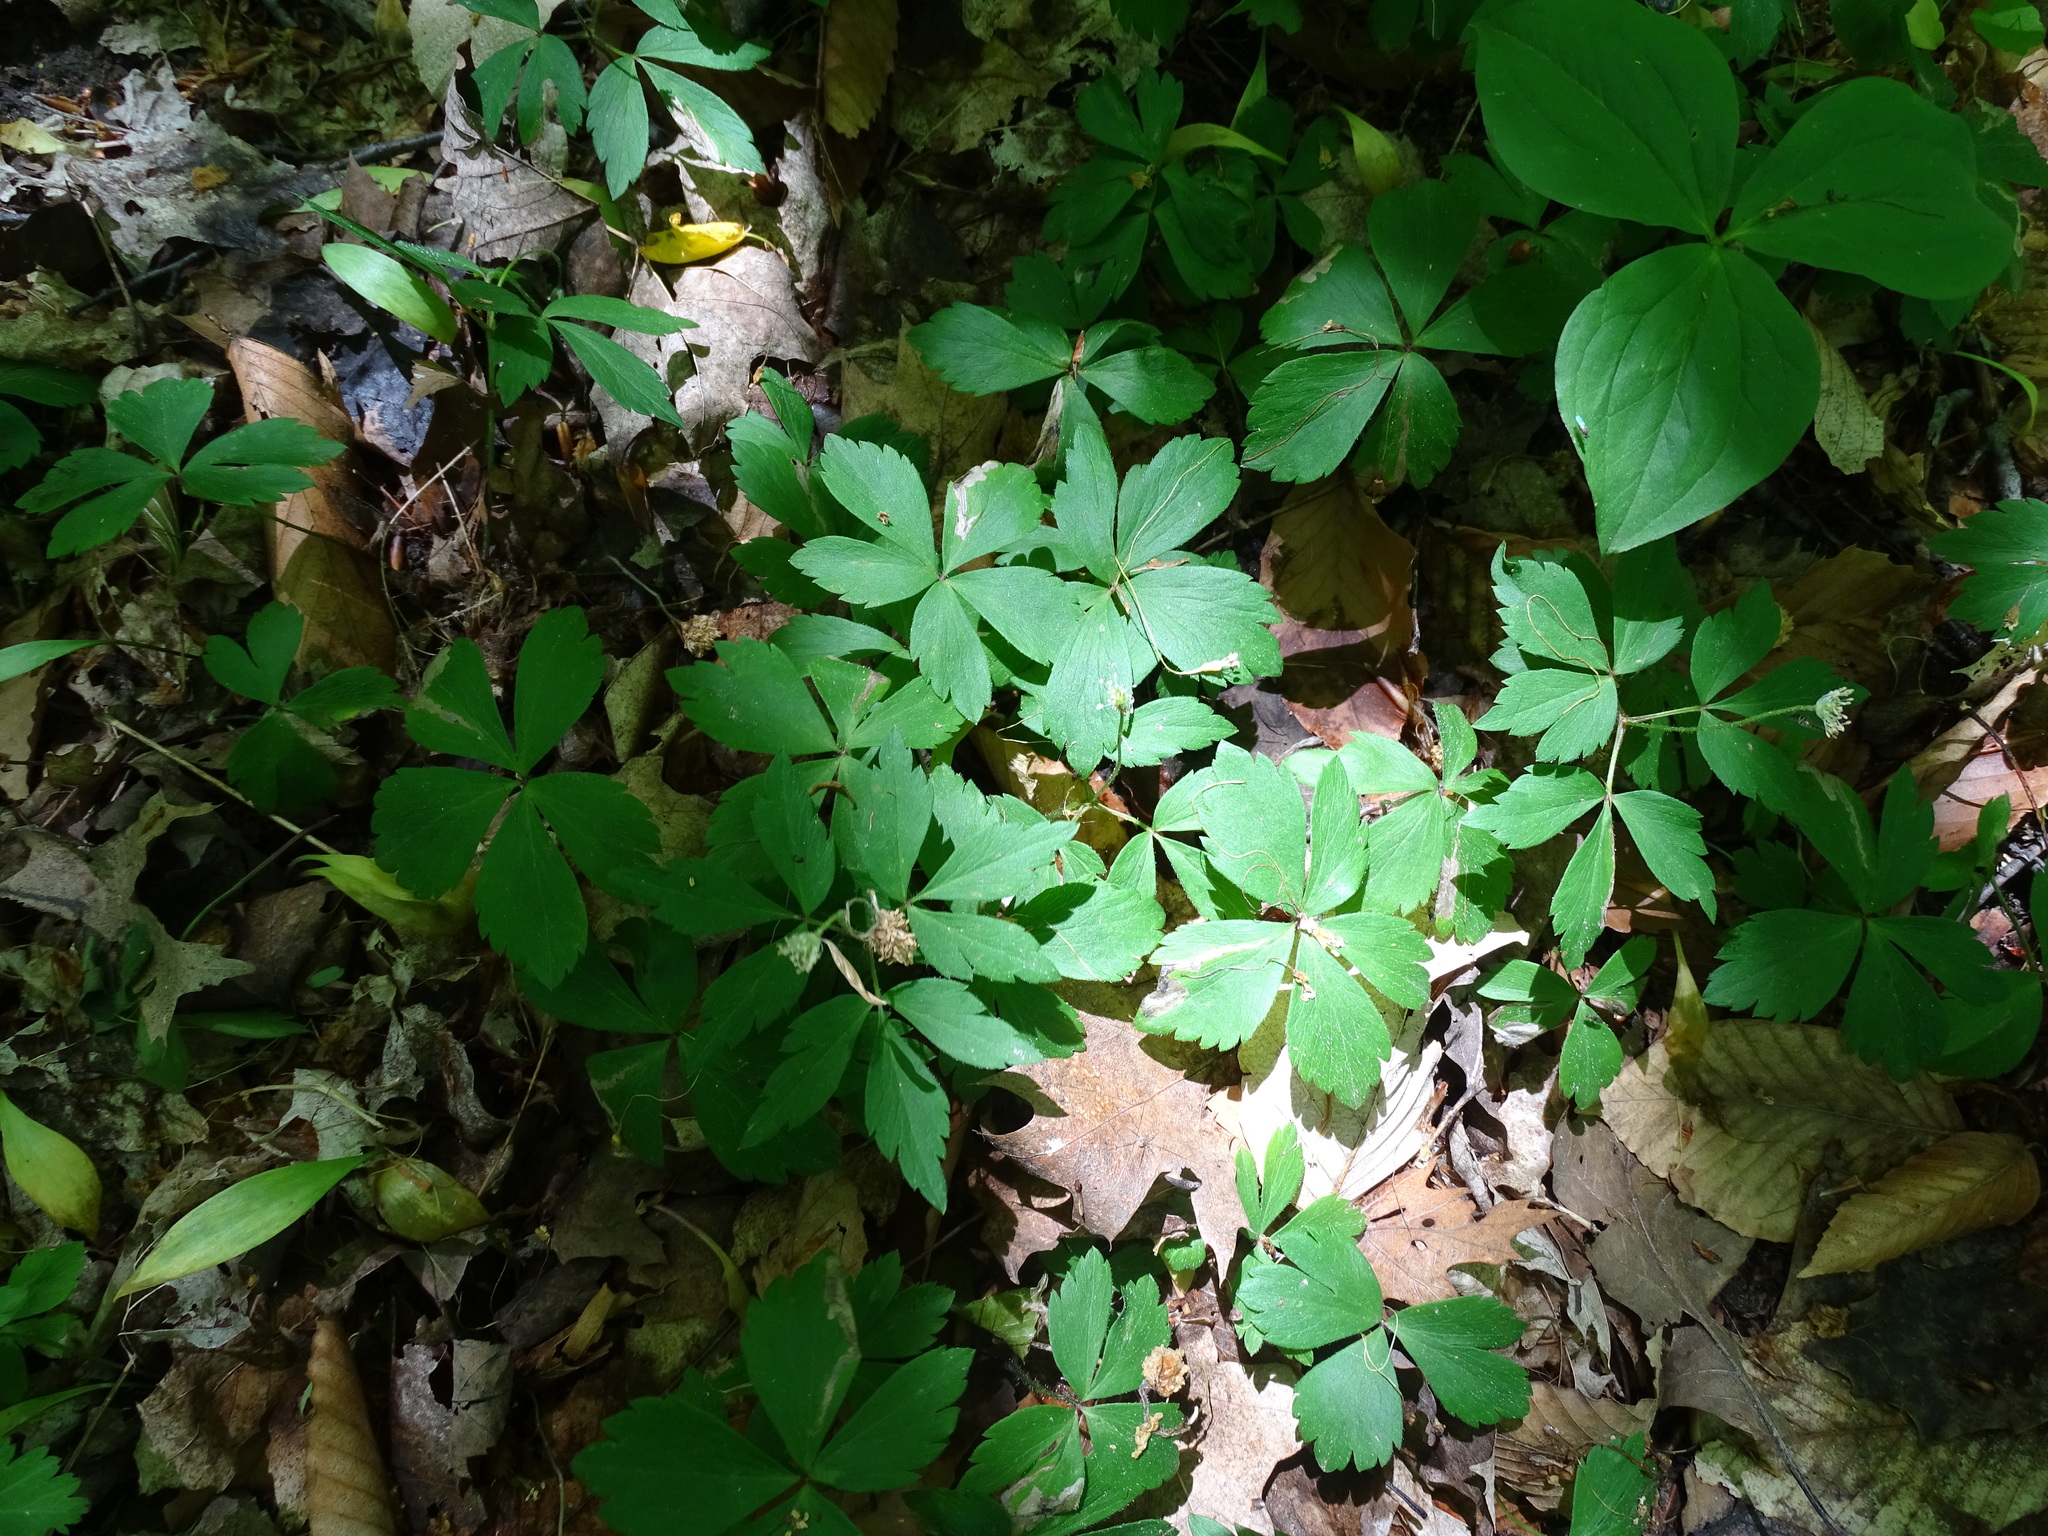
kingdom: Plantae
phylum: Tracheophyta
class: Magnoliopsida
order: Ranunculales
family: Ranunculaceae
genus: Anemone
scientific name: Anemone quinquefolia
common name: Wood anemone
